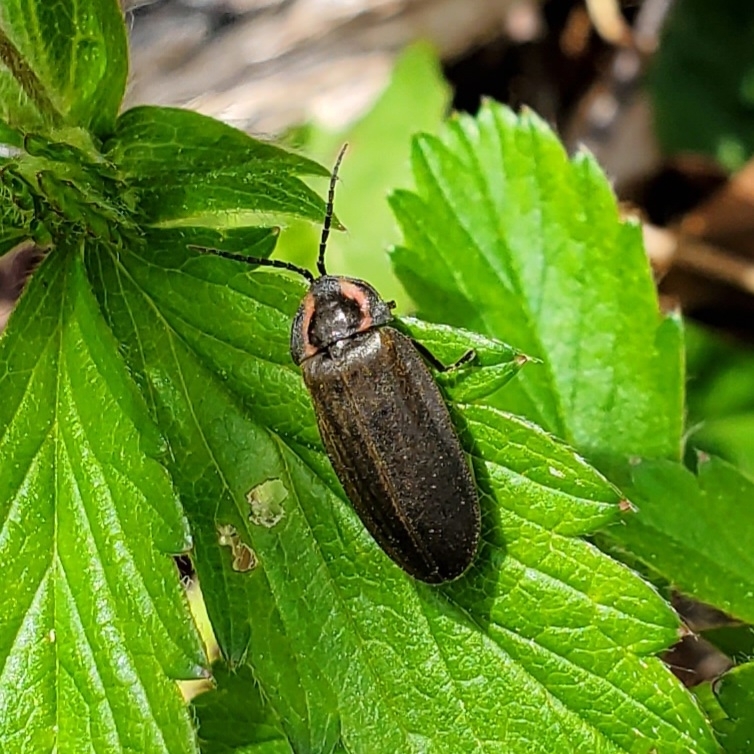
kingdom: Animalia
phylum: Arthropoda
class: Insecta
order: Coleoptera
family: Lampyridae
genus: Photinus
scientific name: Photinus corrusca
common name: Winter firefly
